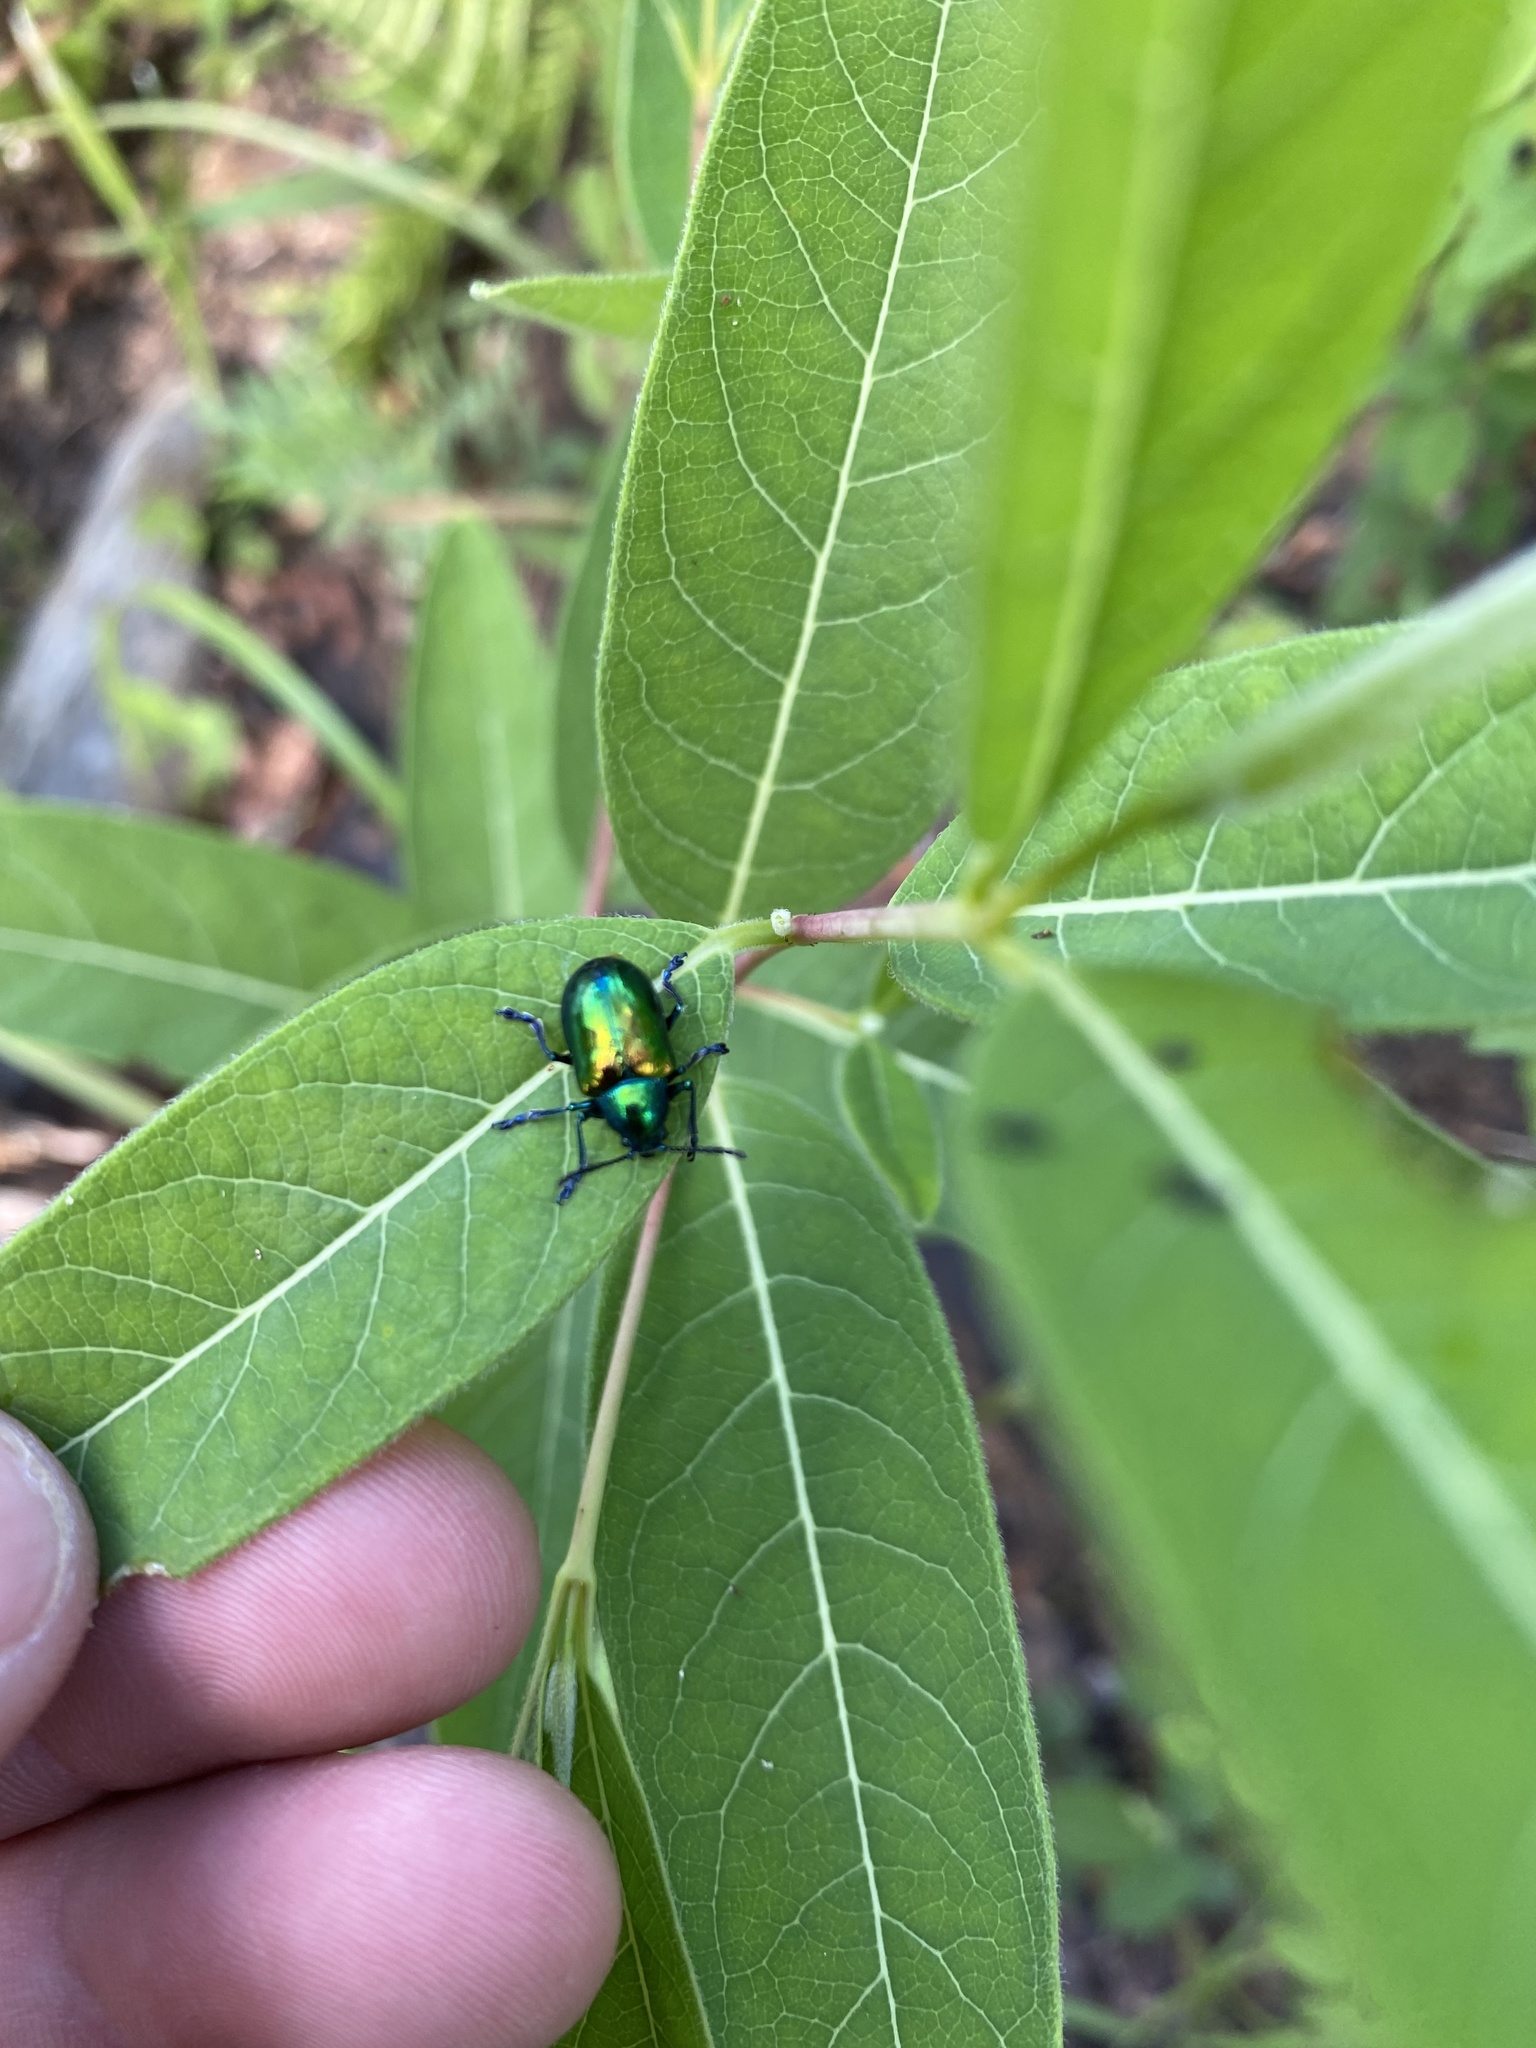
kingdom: Animalia
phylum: Arthropoda
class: Insecta
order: Coleoptera
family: Chrysomelidae
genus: Chrysochus
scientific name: Chrysochus auratus
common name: Dogbane leaf beetle
